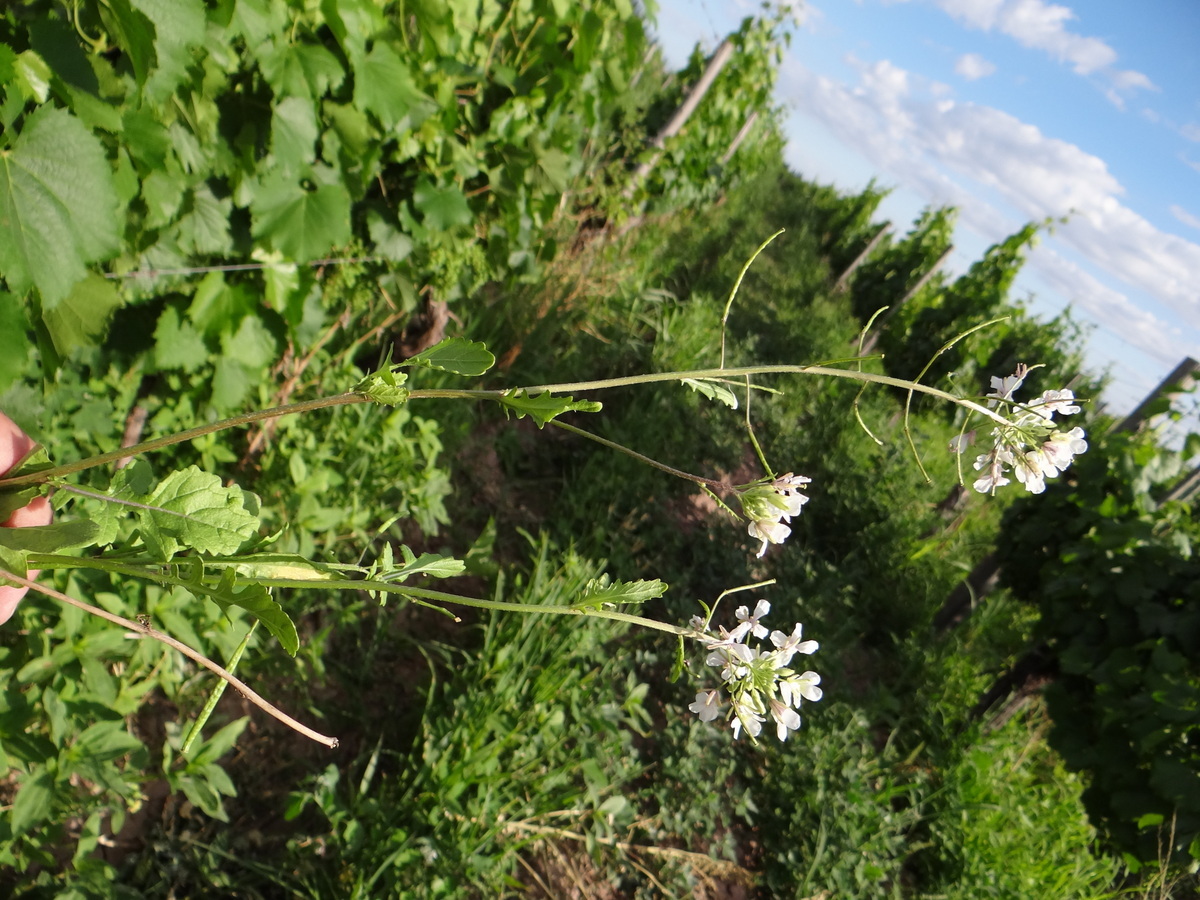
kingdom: Plantae
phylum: Tracheophyta
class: Magnoliopsida
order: Brassicales
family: Brassicaceae
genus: Diplotaxis
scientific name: Diplotaxis erucoides
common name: White rocket
